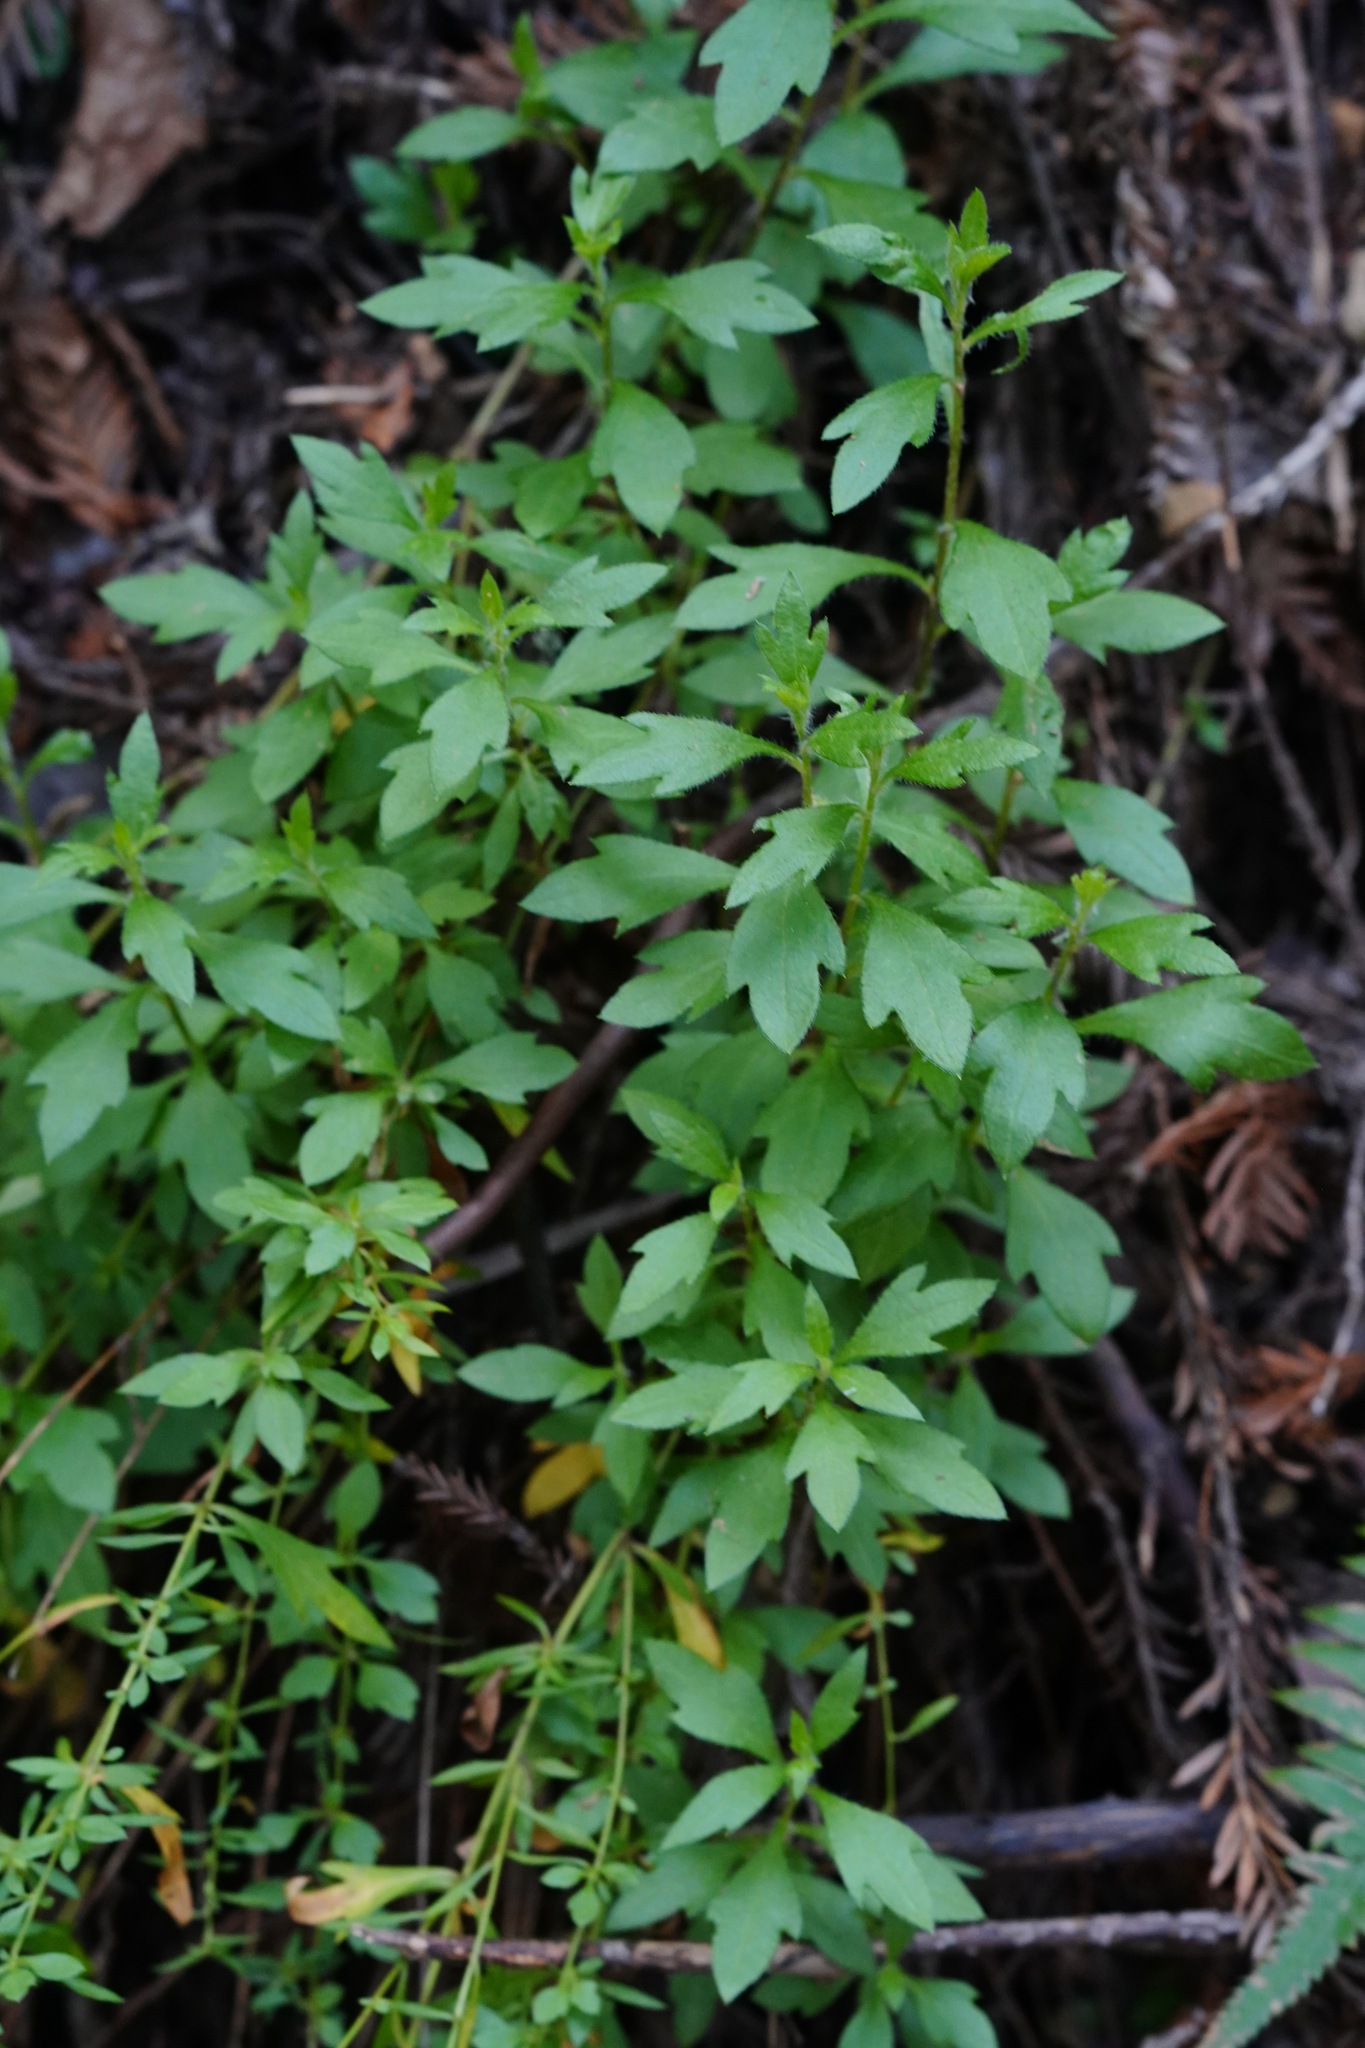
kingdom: Plantae
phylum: Tracheophyta
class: Magnoliopsida
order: Asterales
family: Asteraceae
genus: Erigeron
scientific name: Erigeron karvinskianus
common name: Mexican fleabane
